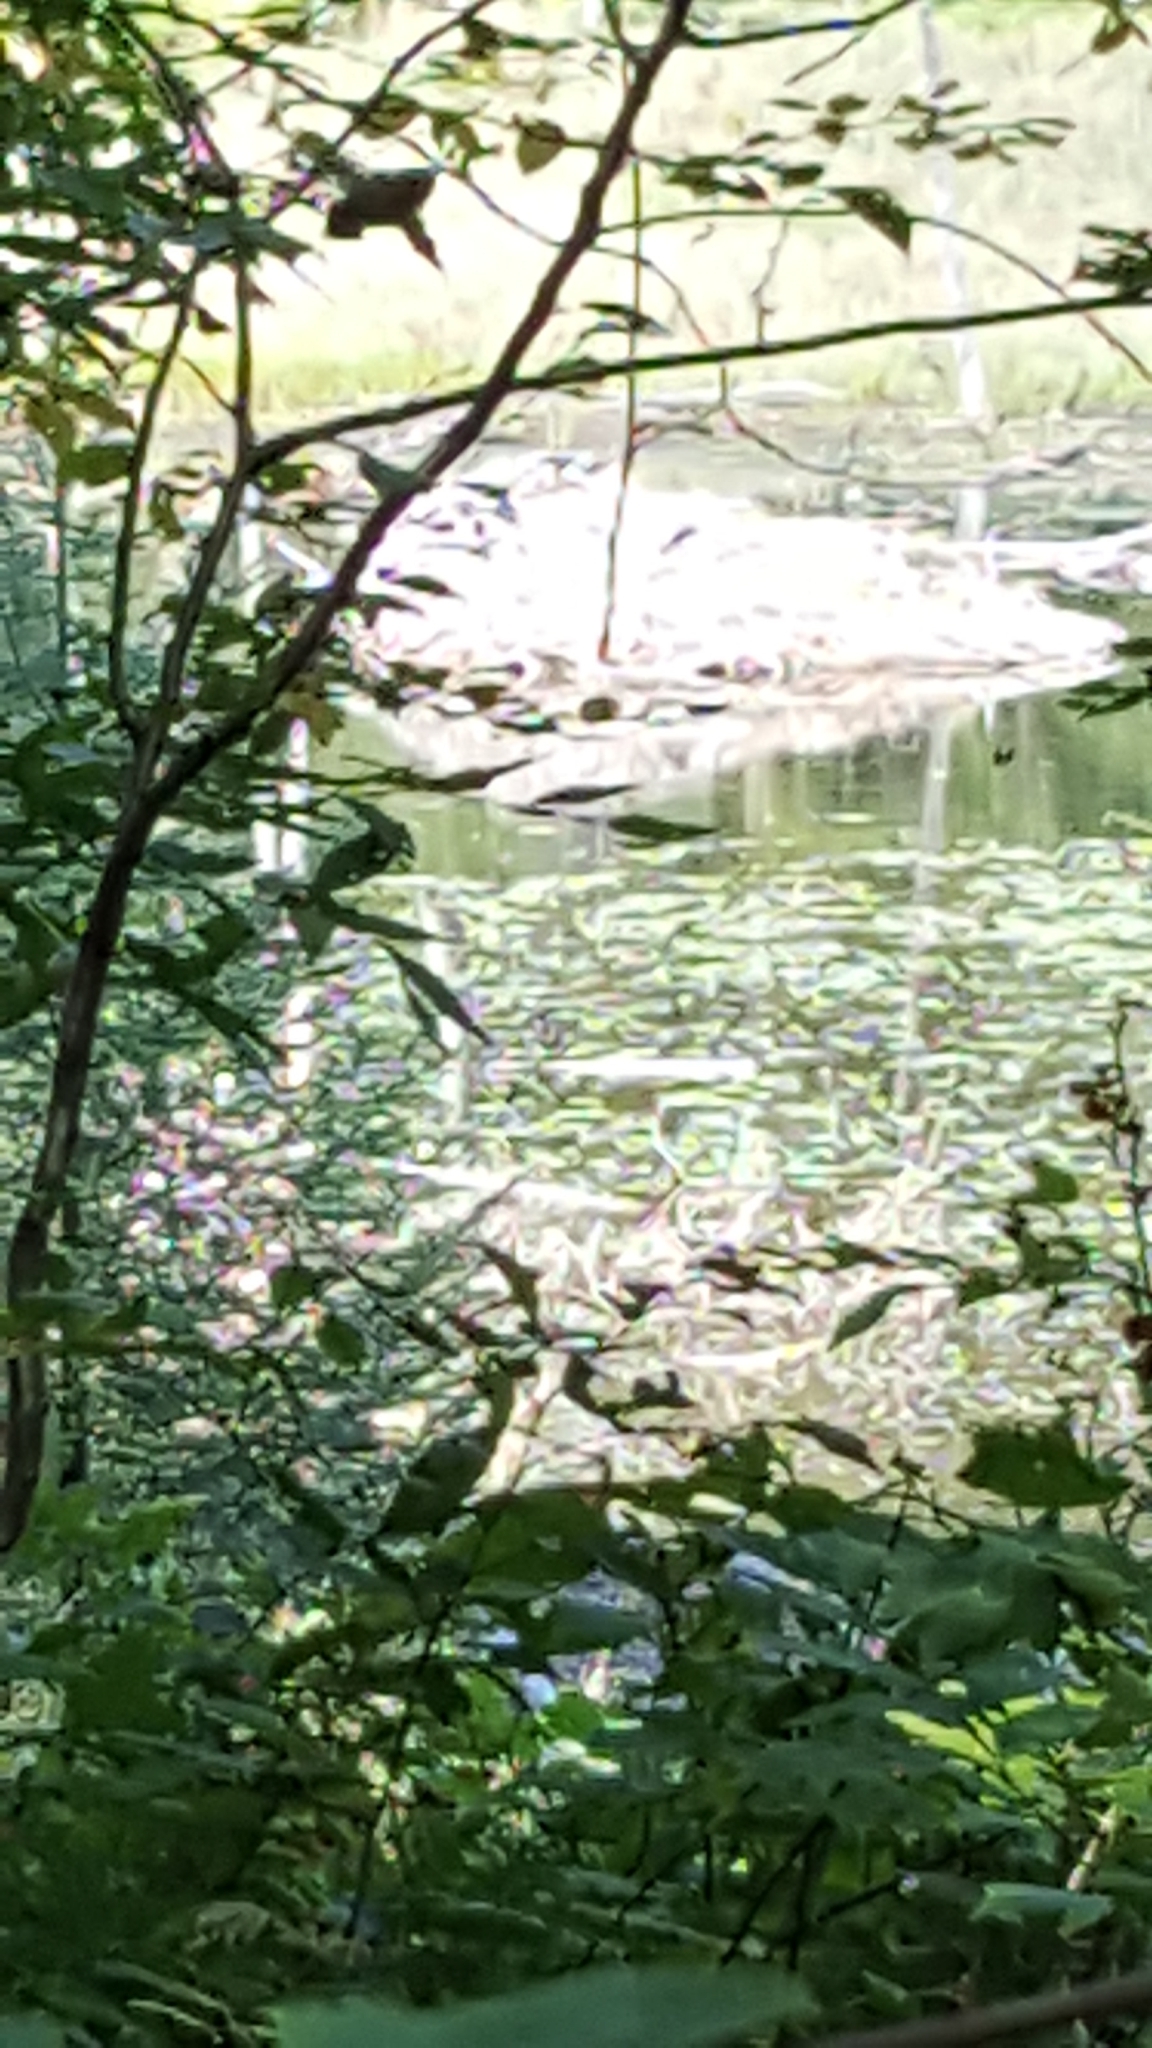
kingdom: Animalia
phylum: Chordata
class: Mammalia
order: Rodentia
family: Castoridae
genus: Castor
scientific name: Castor canadensis
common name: American beaver
